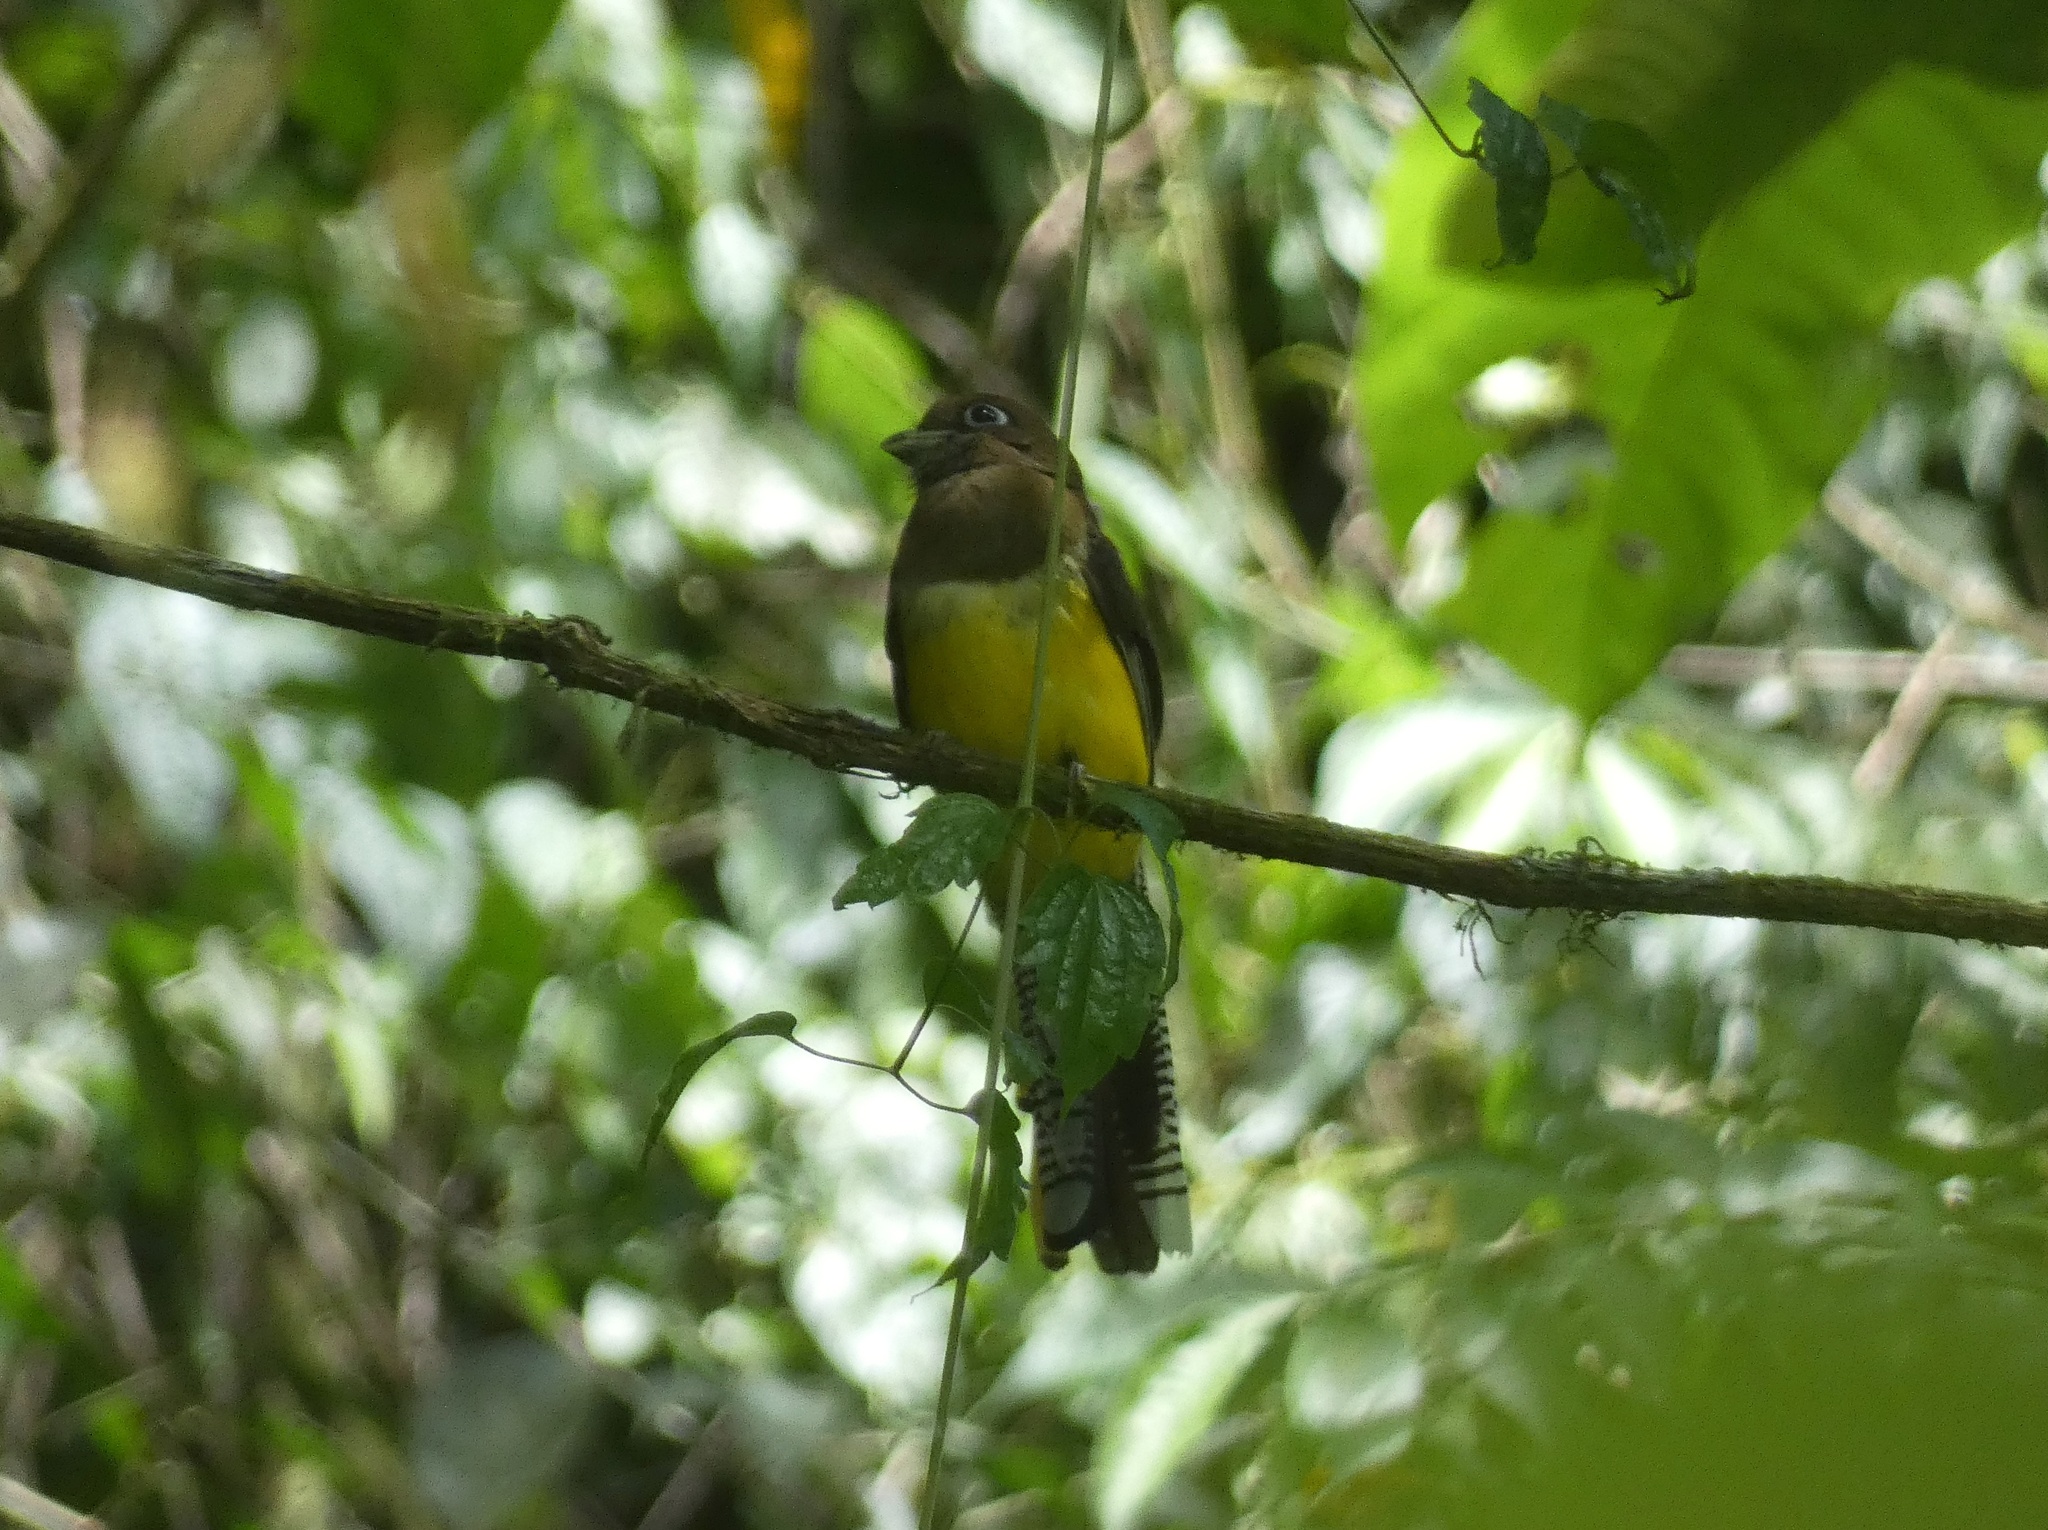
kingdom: Animalia
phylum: Chordata
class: Aves
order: Trogoniformes
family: Trogonidae
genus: Trogon
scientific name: Trogon rufus
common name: Black-throated trogon
